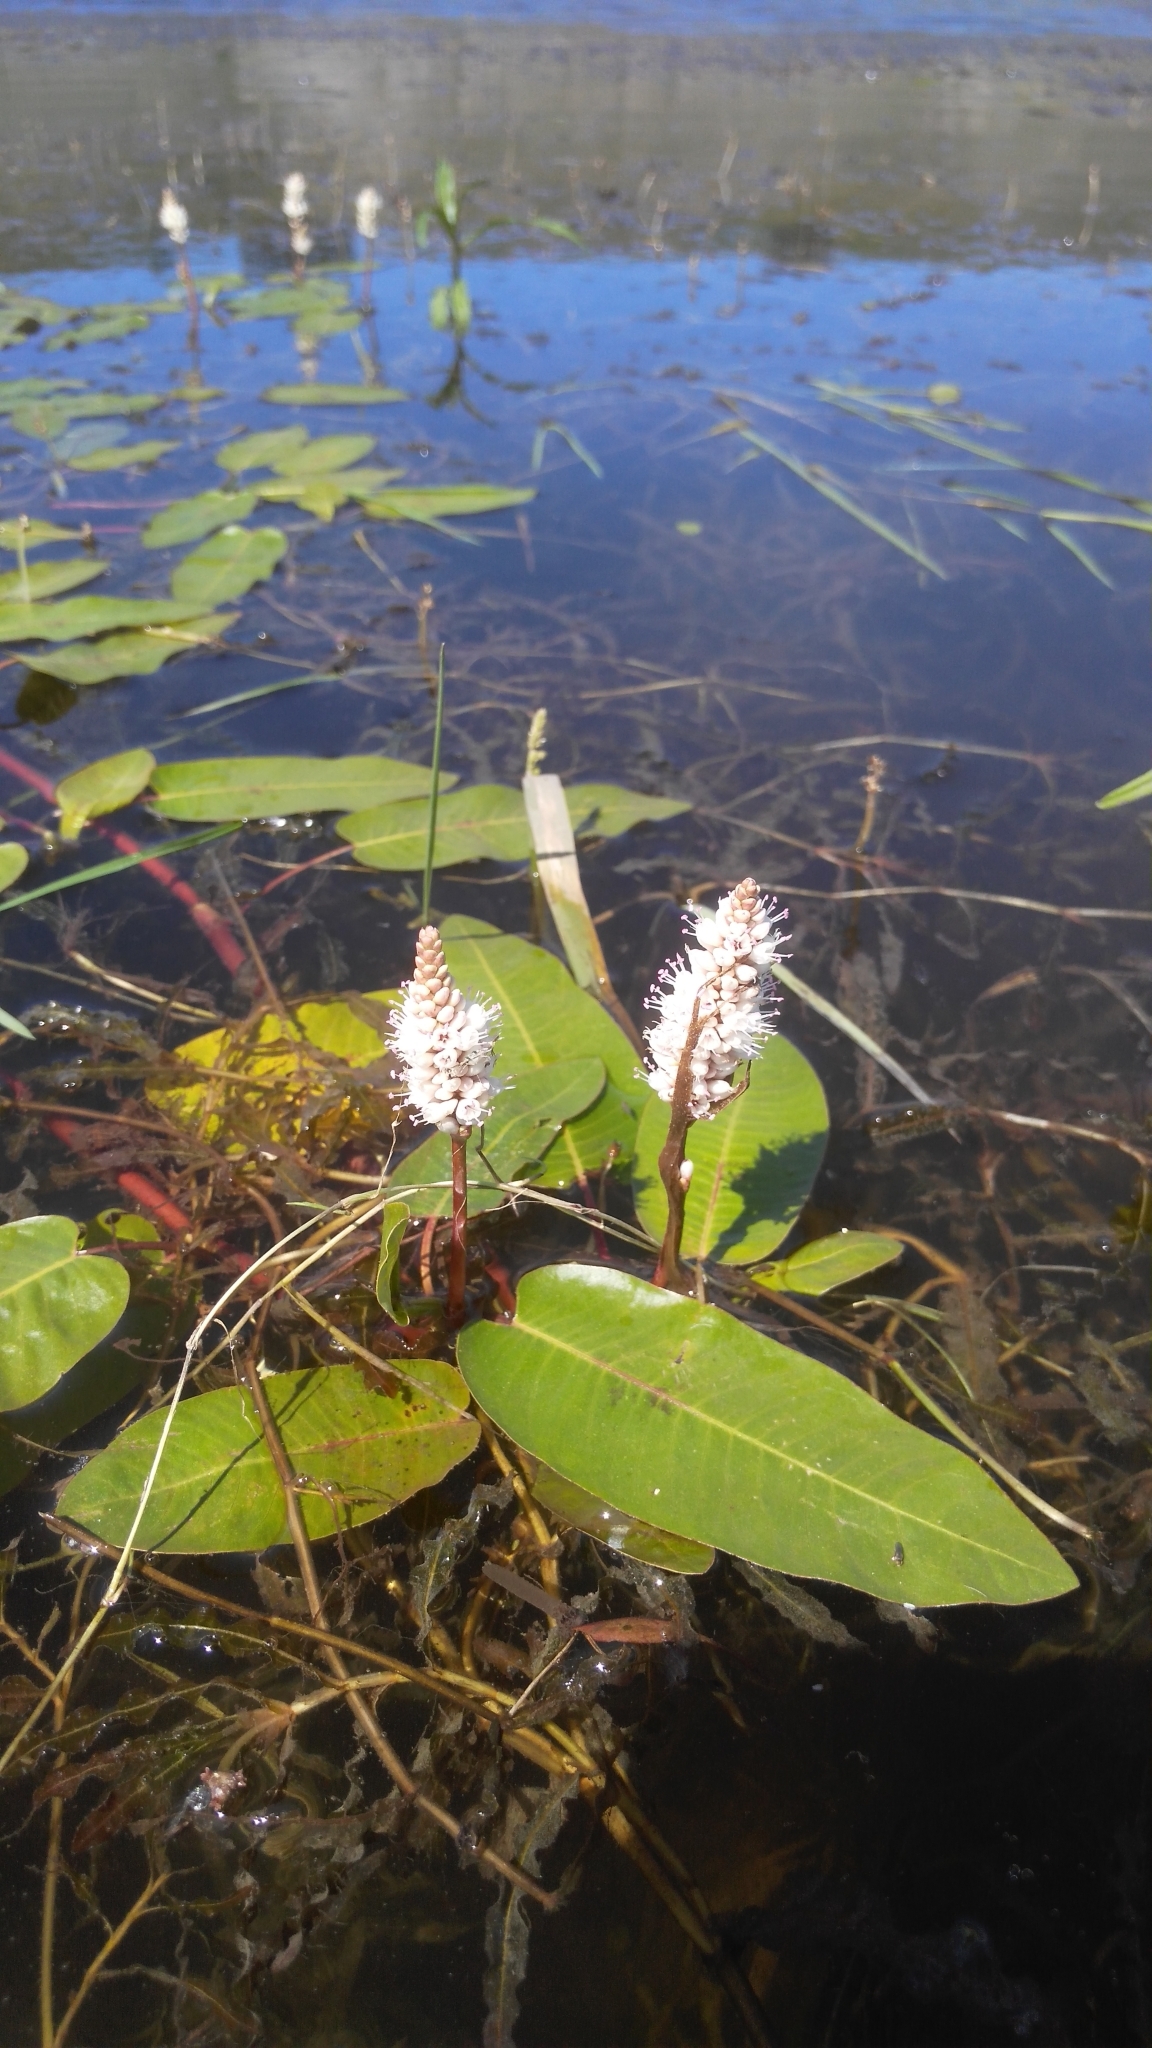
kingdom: Plantae
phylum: Tracheophyta
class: Magnoliopsida
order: Caryophyllales
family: Polygonaceae
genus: Persicaria
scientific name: Persicaria amphibia
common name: Amphibious bistort
